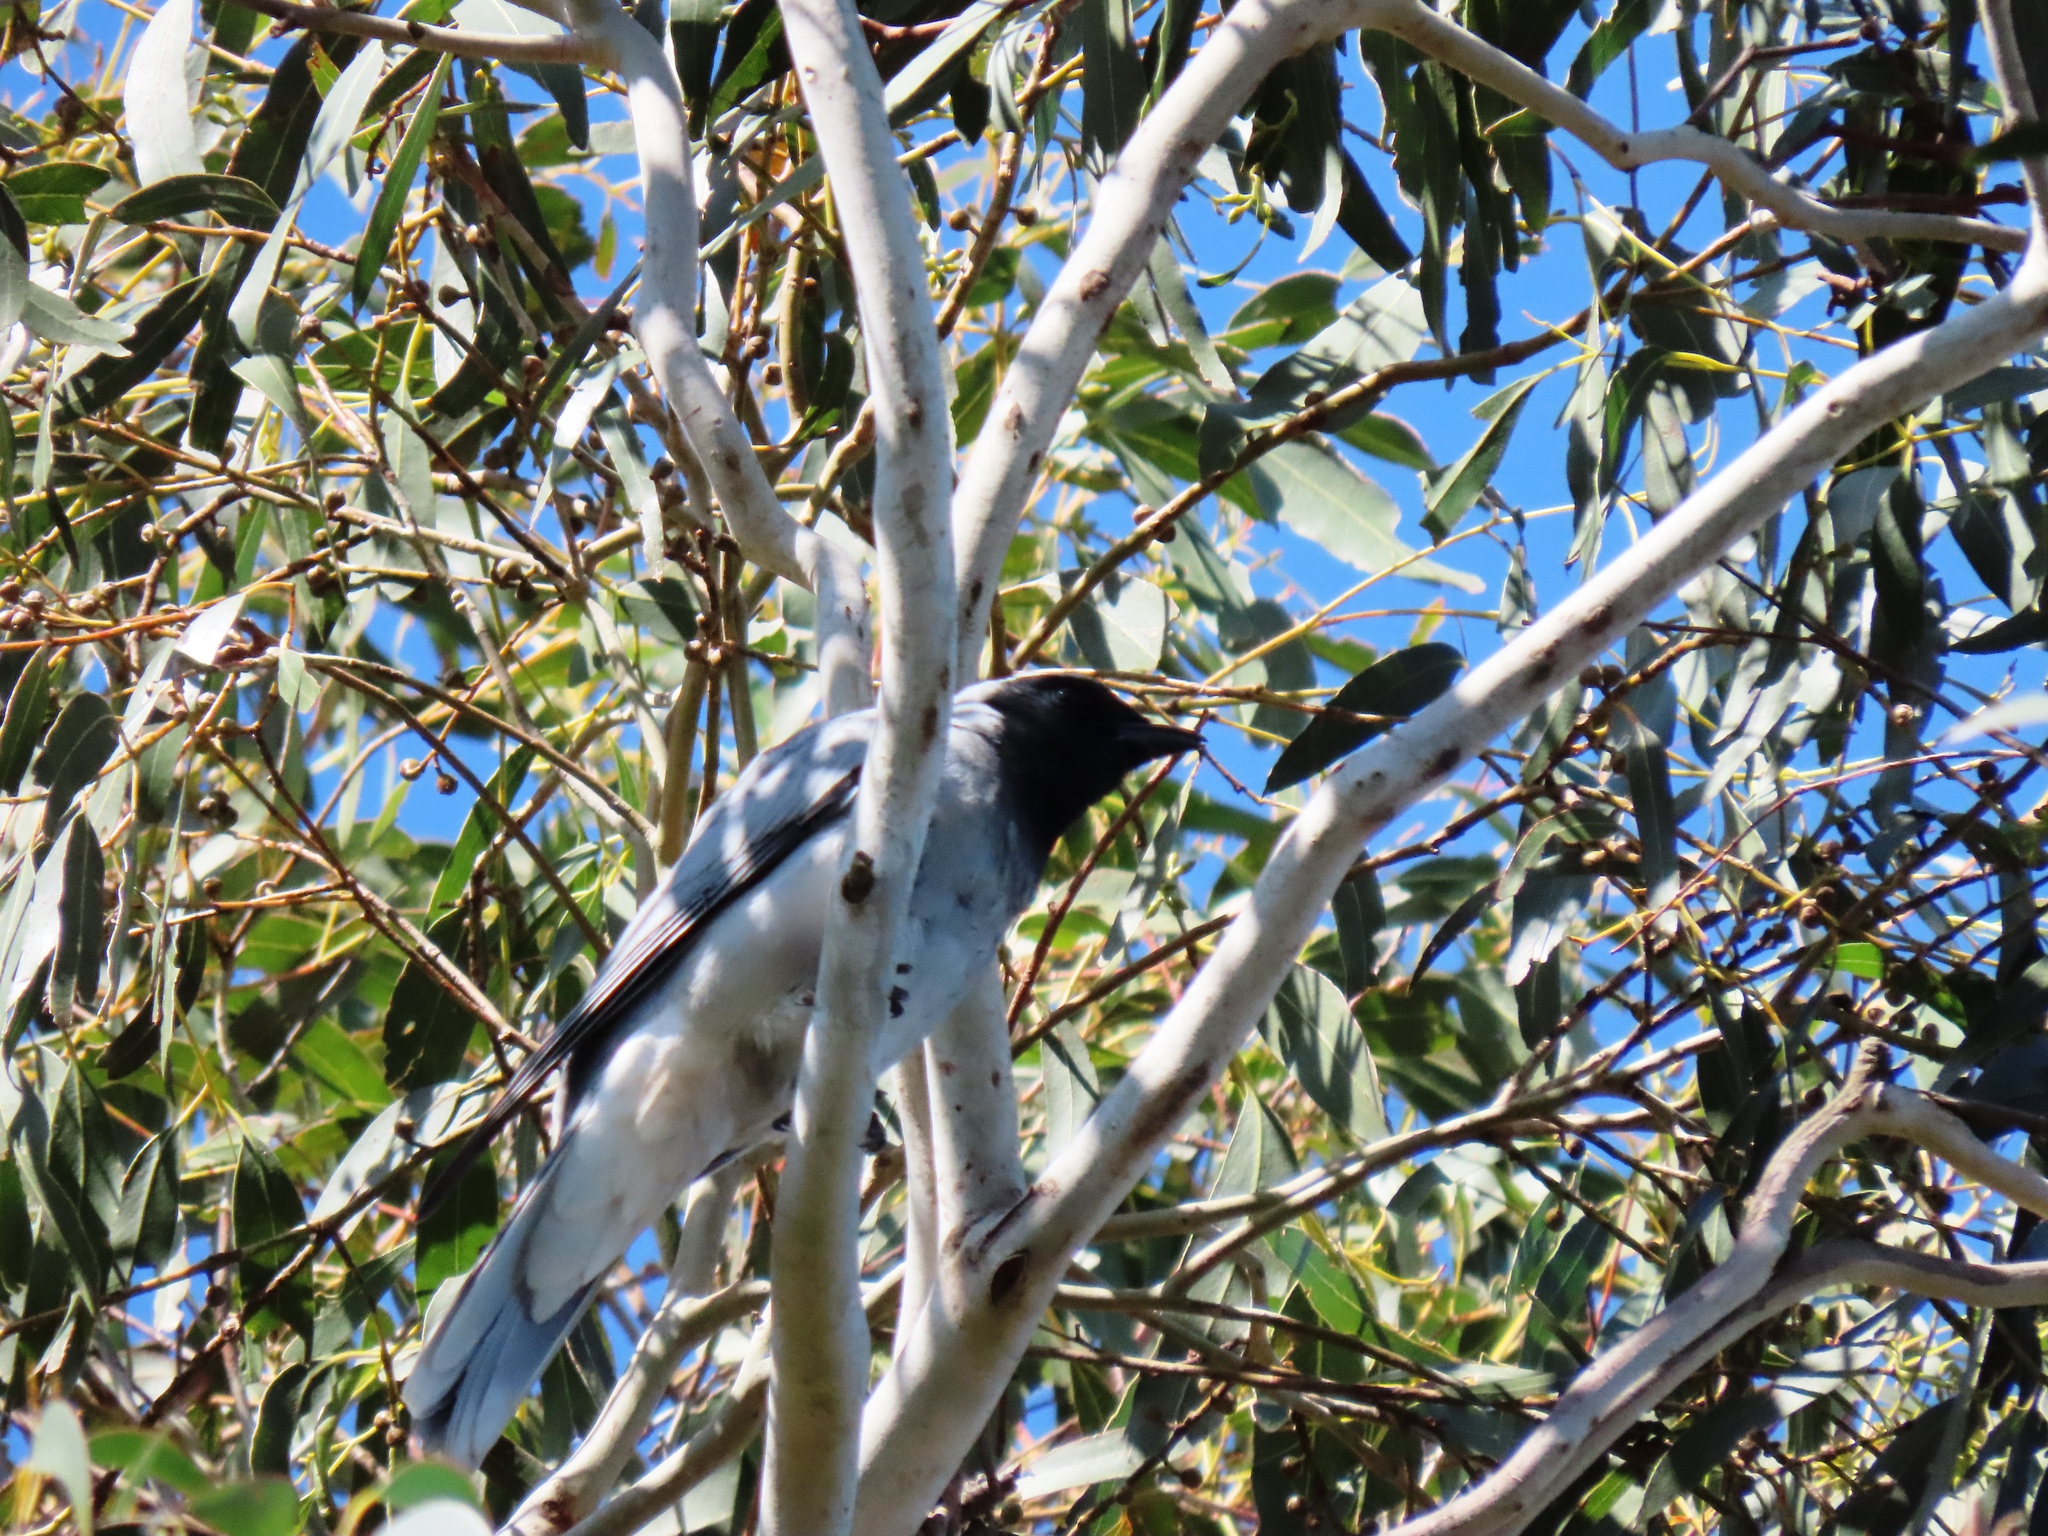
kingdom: Animalia
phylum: Chordata
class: Aves
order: Passeriformes
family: Campephagidae
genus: Coracina
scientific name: Coracina novaehollandiae
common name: Black-faced cuckooshrike
